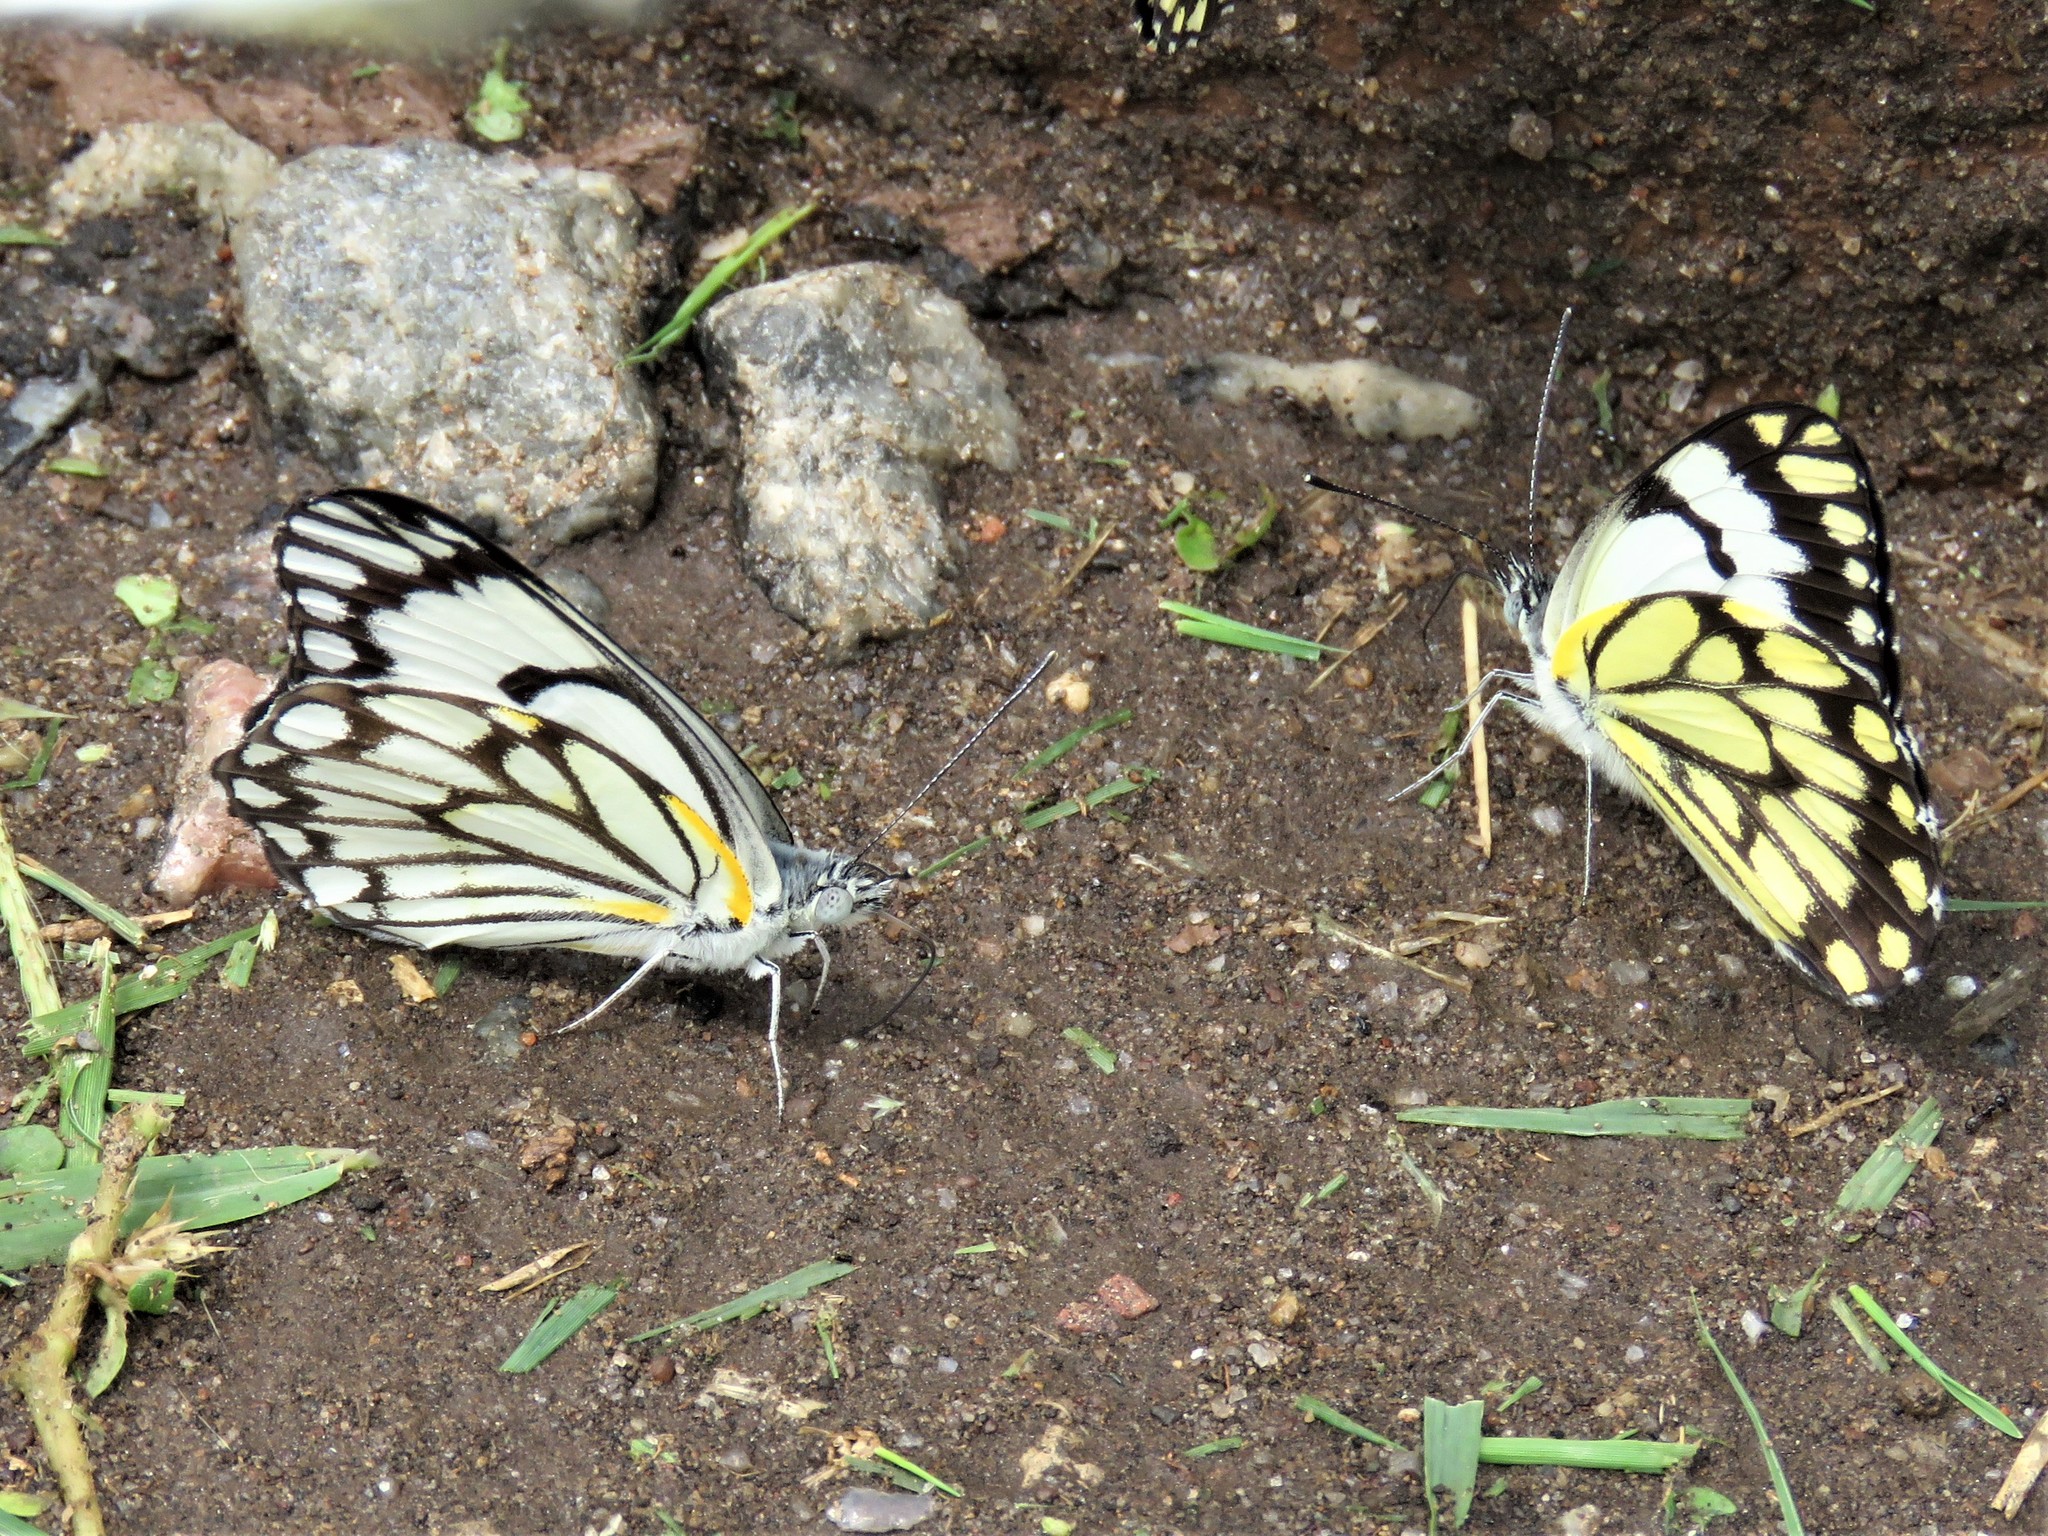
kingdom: Animalia
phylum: Arthropoda
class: Insecta
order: Lepidoptera
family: Pieridae
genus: Belenois
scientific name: Belenois aurota
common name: Brown-veined white
